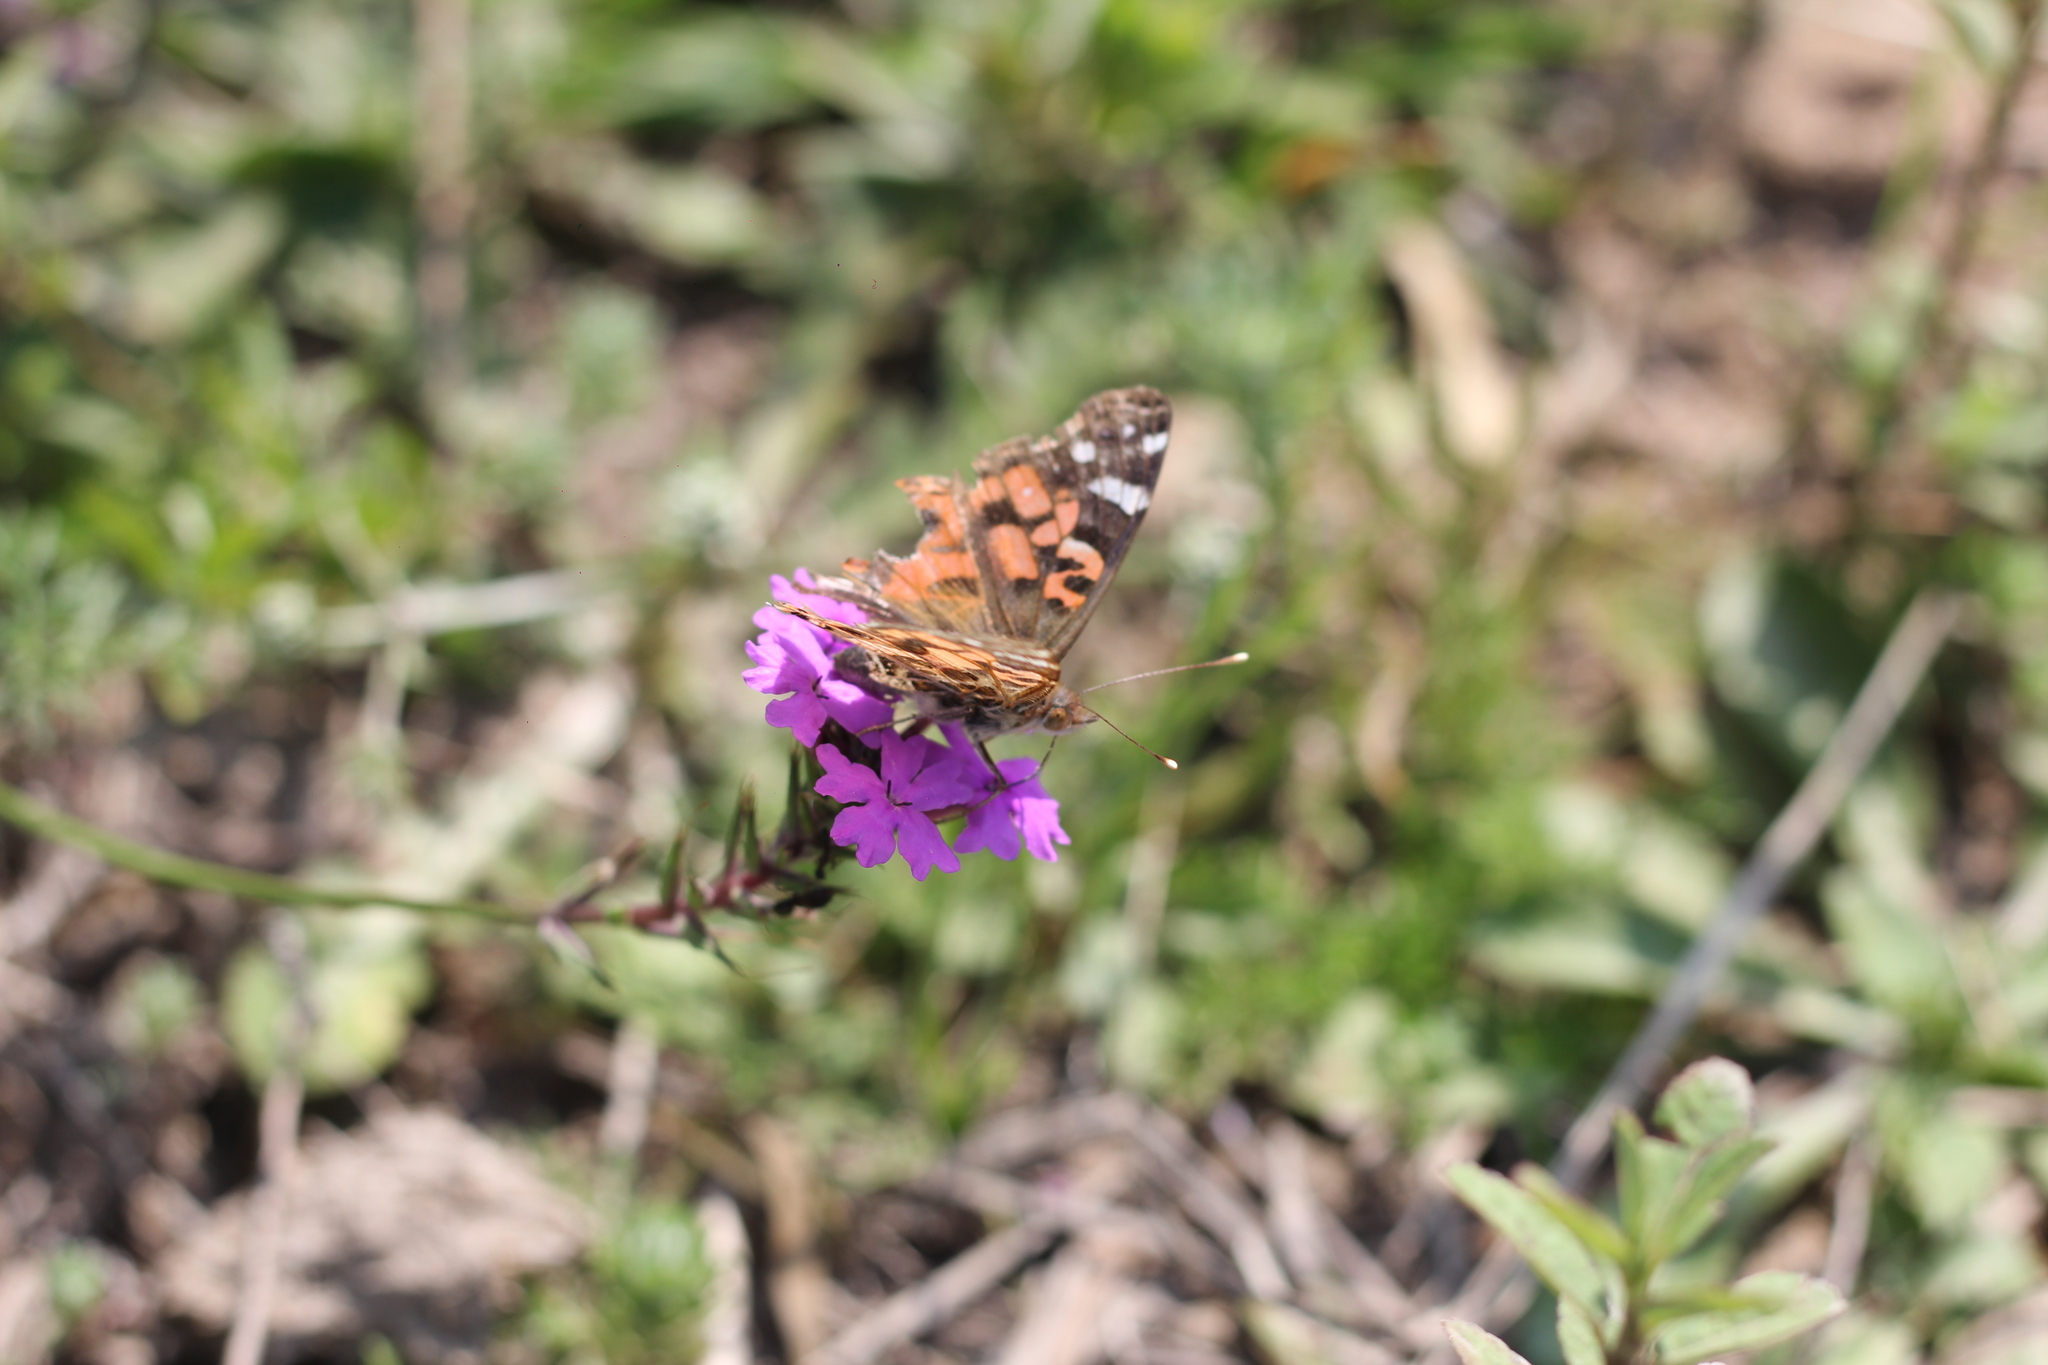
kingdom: Animalia
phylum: Arthropoda
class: Insecta
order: Lepidoptera
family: Nymphalidae
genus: Vanessa
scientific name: Vanessa braziliensis
